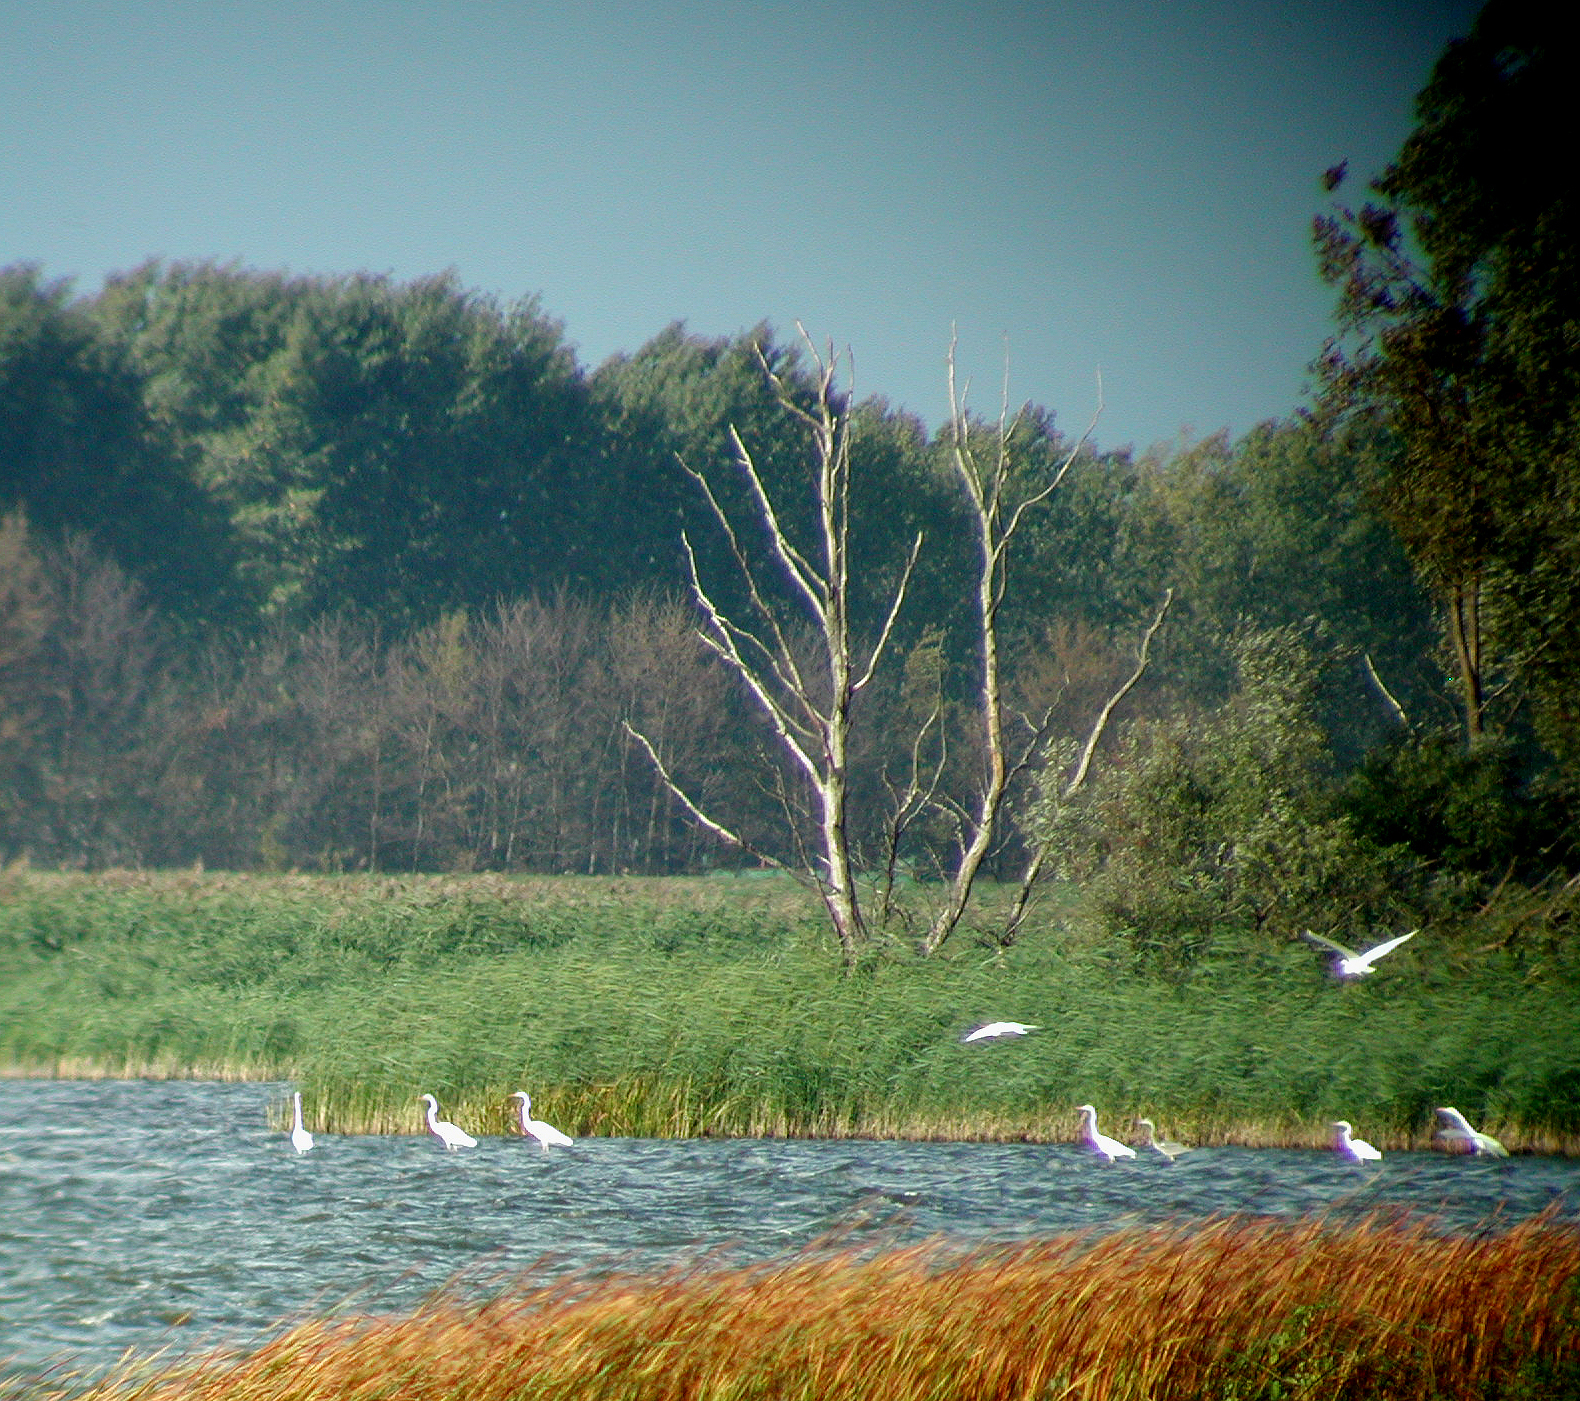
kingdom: Animalia
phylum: Chordata
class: Aves
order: Pelecaniformes
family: Ardeidae
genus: Ardea
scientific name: Ardea alba
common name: Great egret
